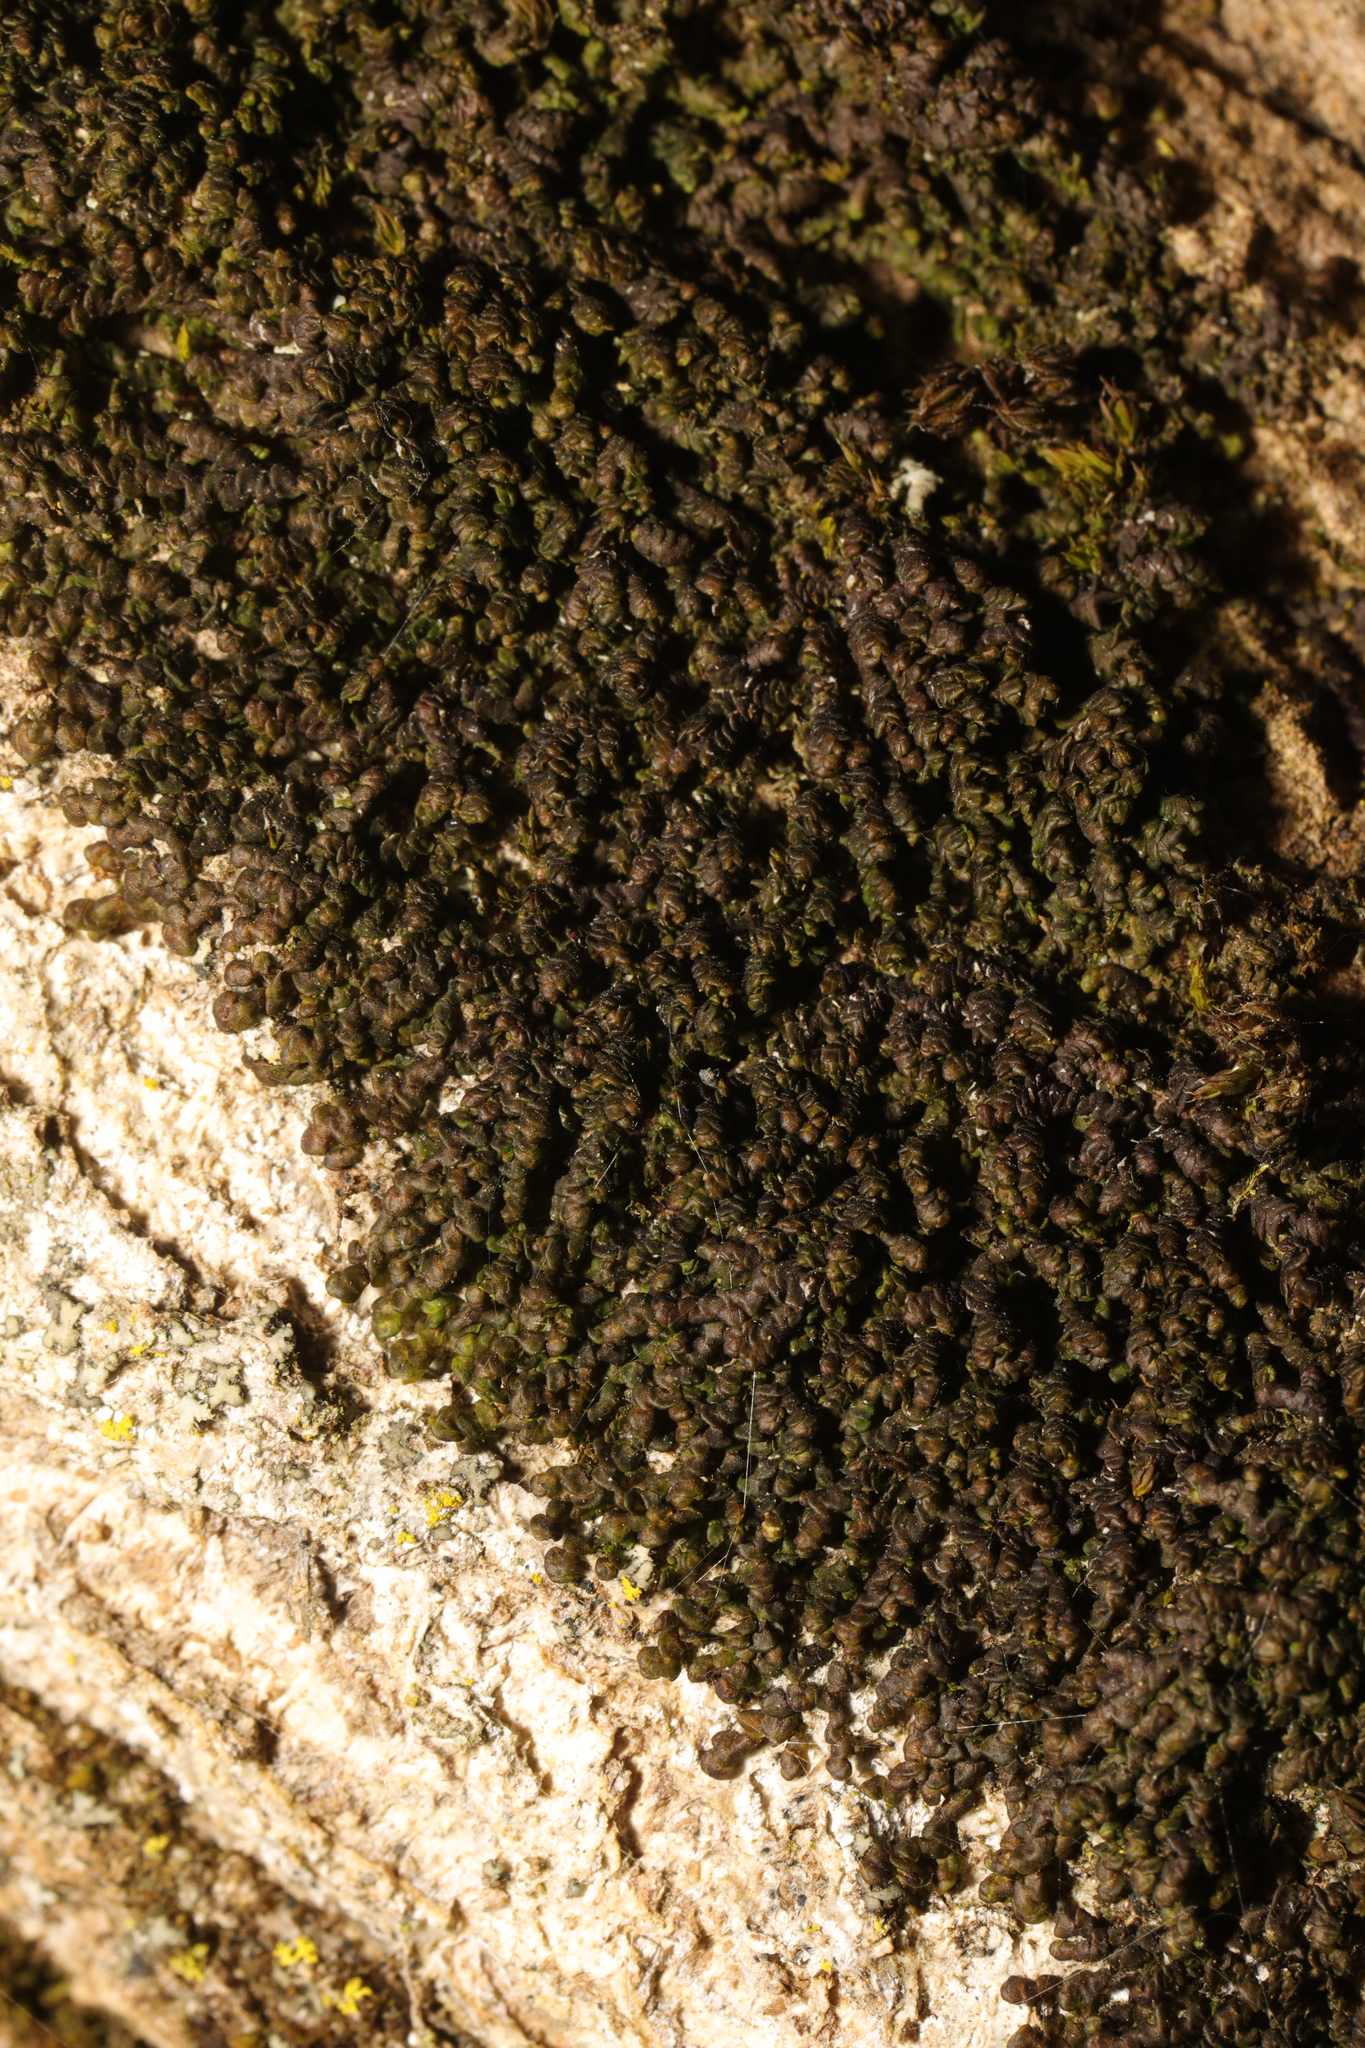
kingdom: Plantae
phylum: Marchantiophyta
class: Jungermanniopsida
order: Porellales
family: Frullaniaceae
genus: Frullania
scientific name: Frullania dilatata
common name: Dilated scalewort
